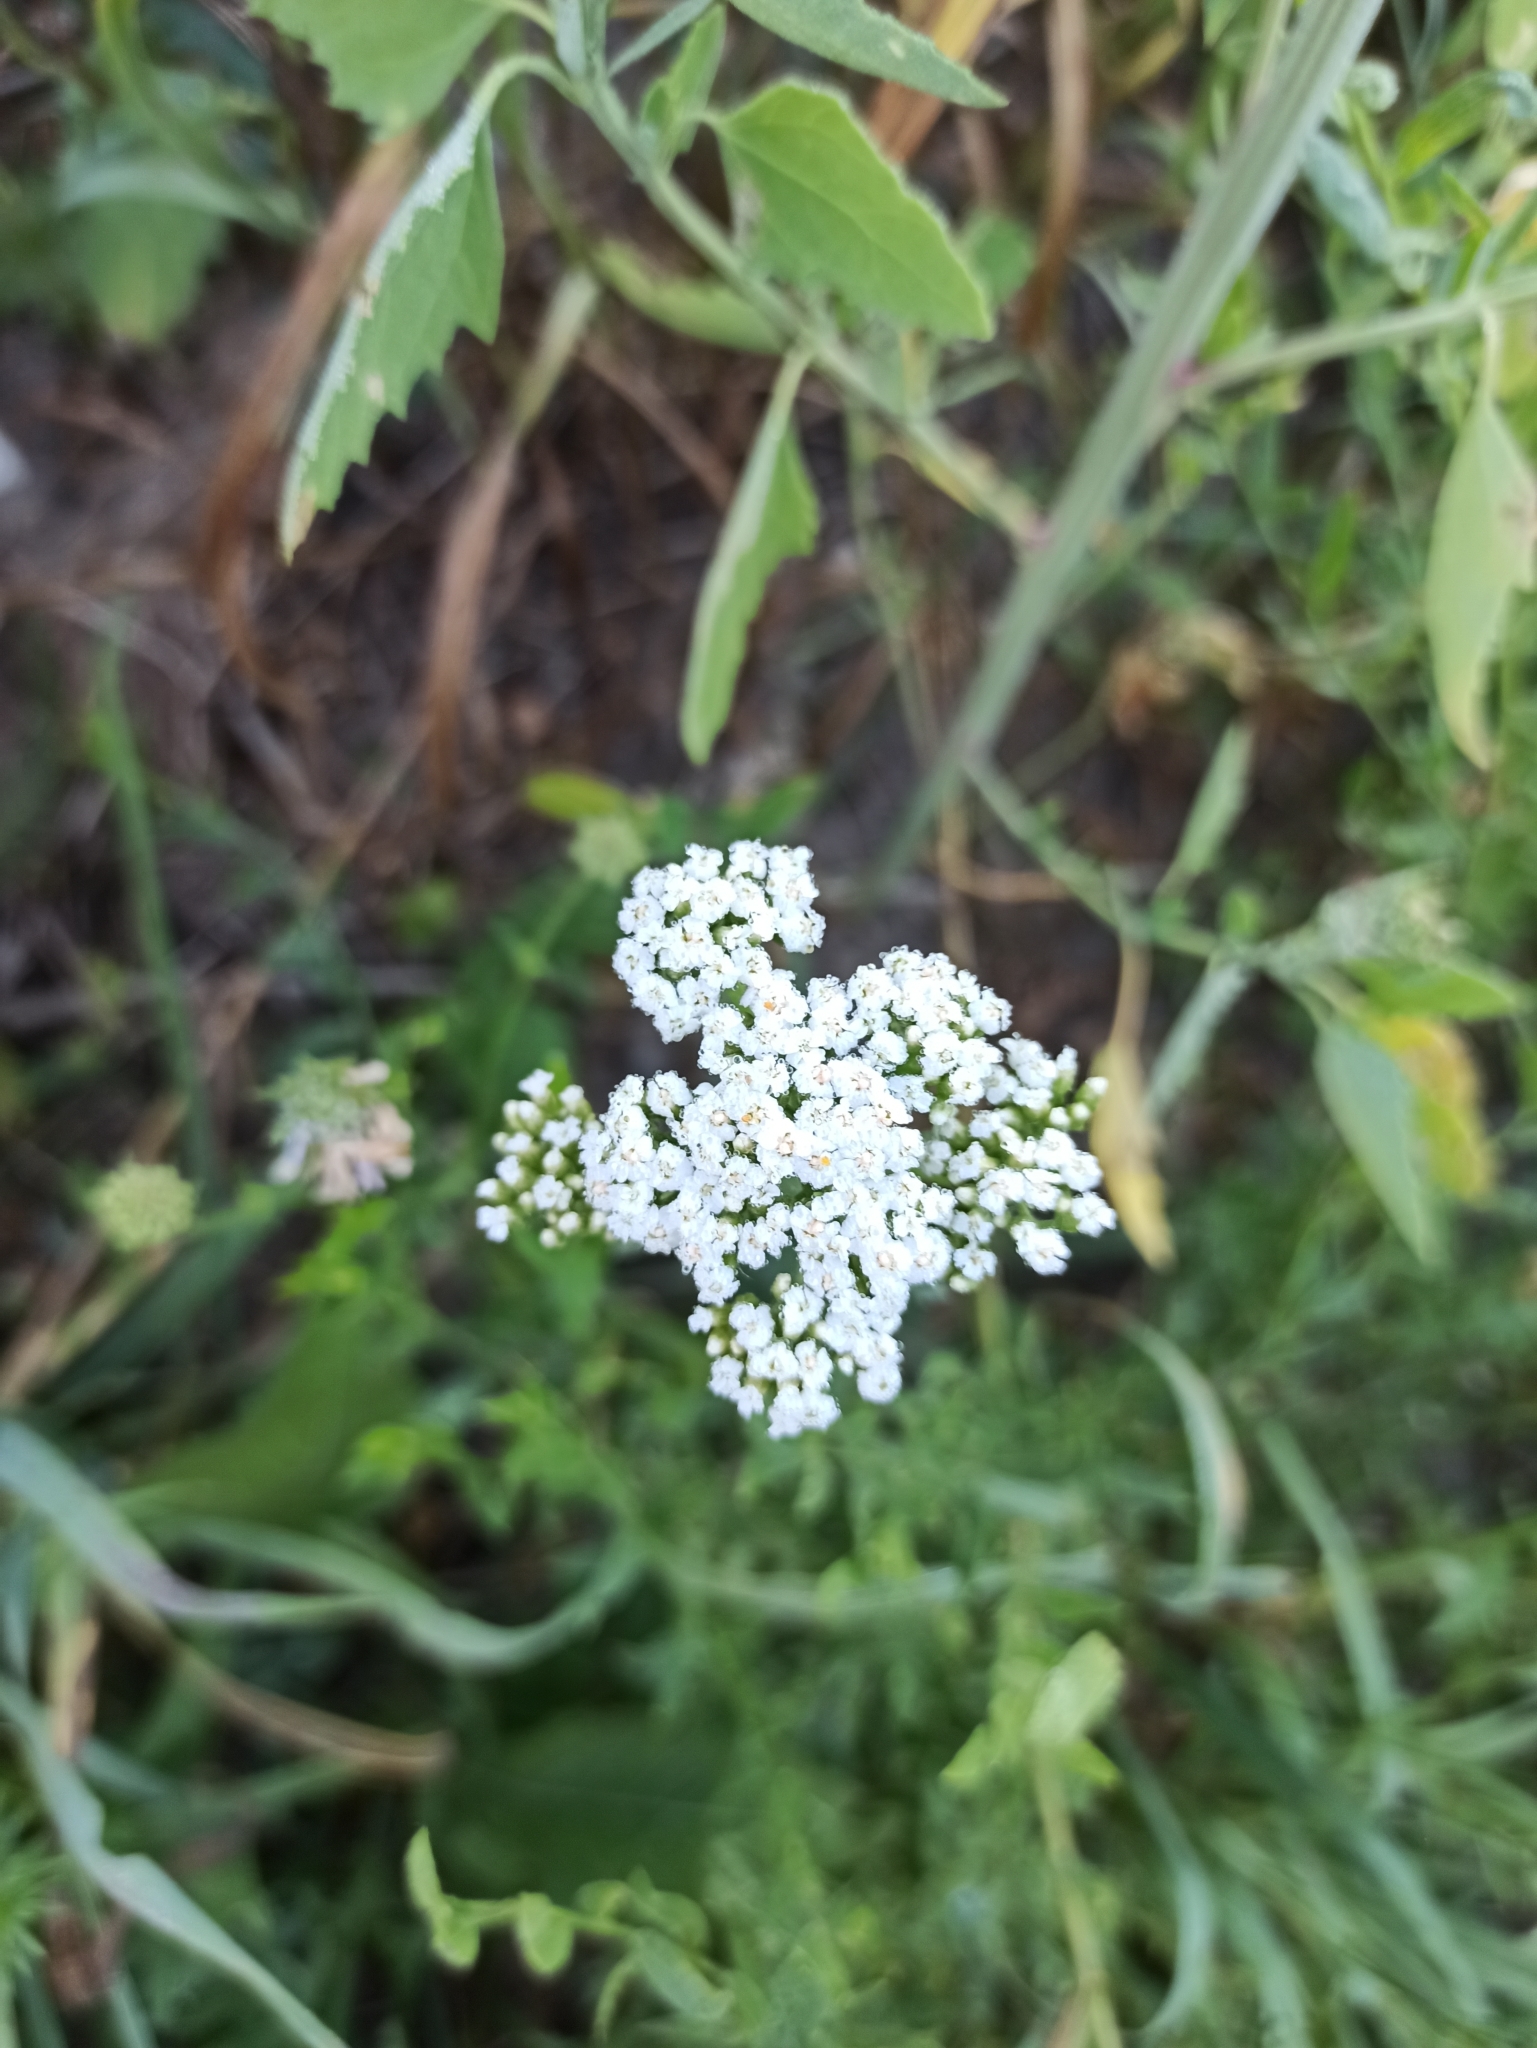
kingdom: Plantae
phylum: Tracheophyta
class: Magnoliopsida
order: Asterales
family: Asteraceae
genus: Achillea
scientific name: Achillea millefolium
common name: Yarrow
